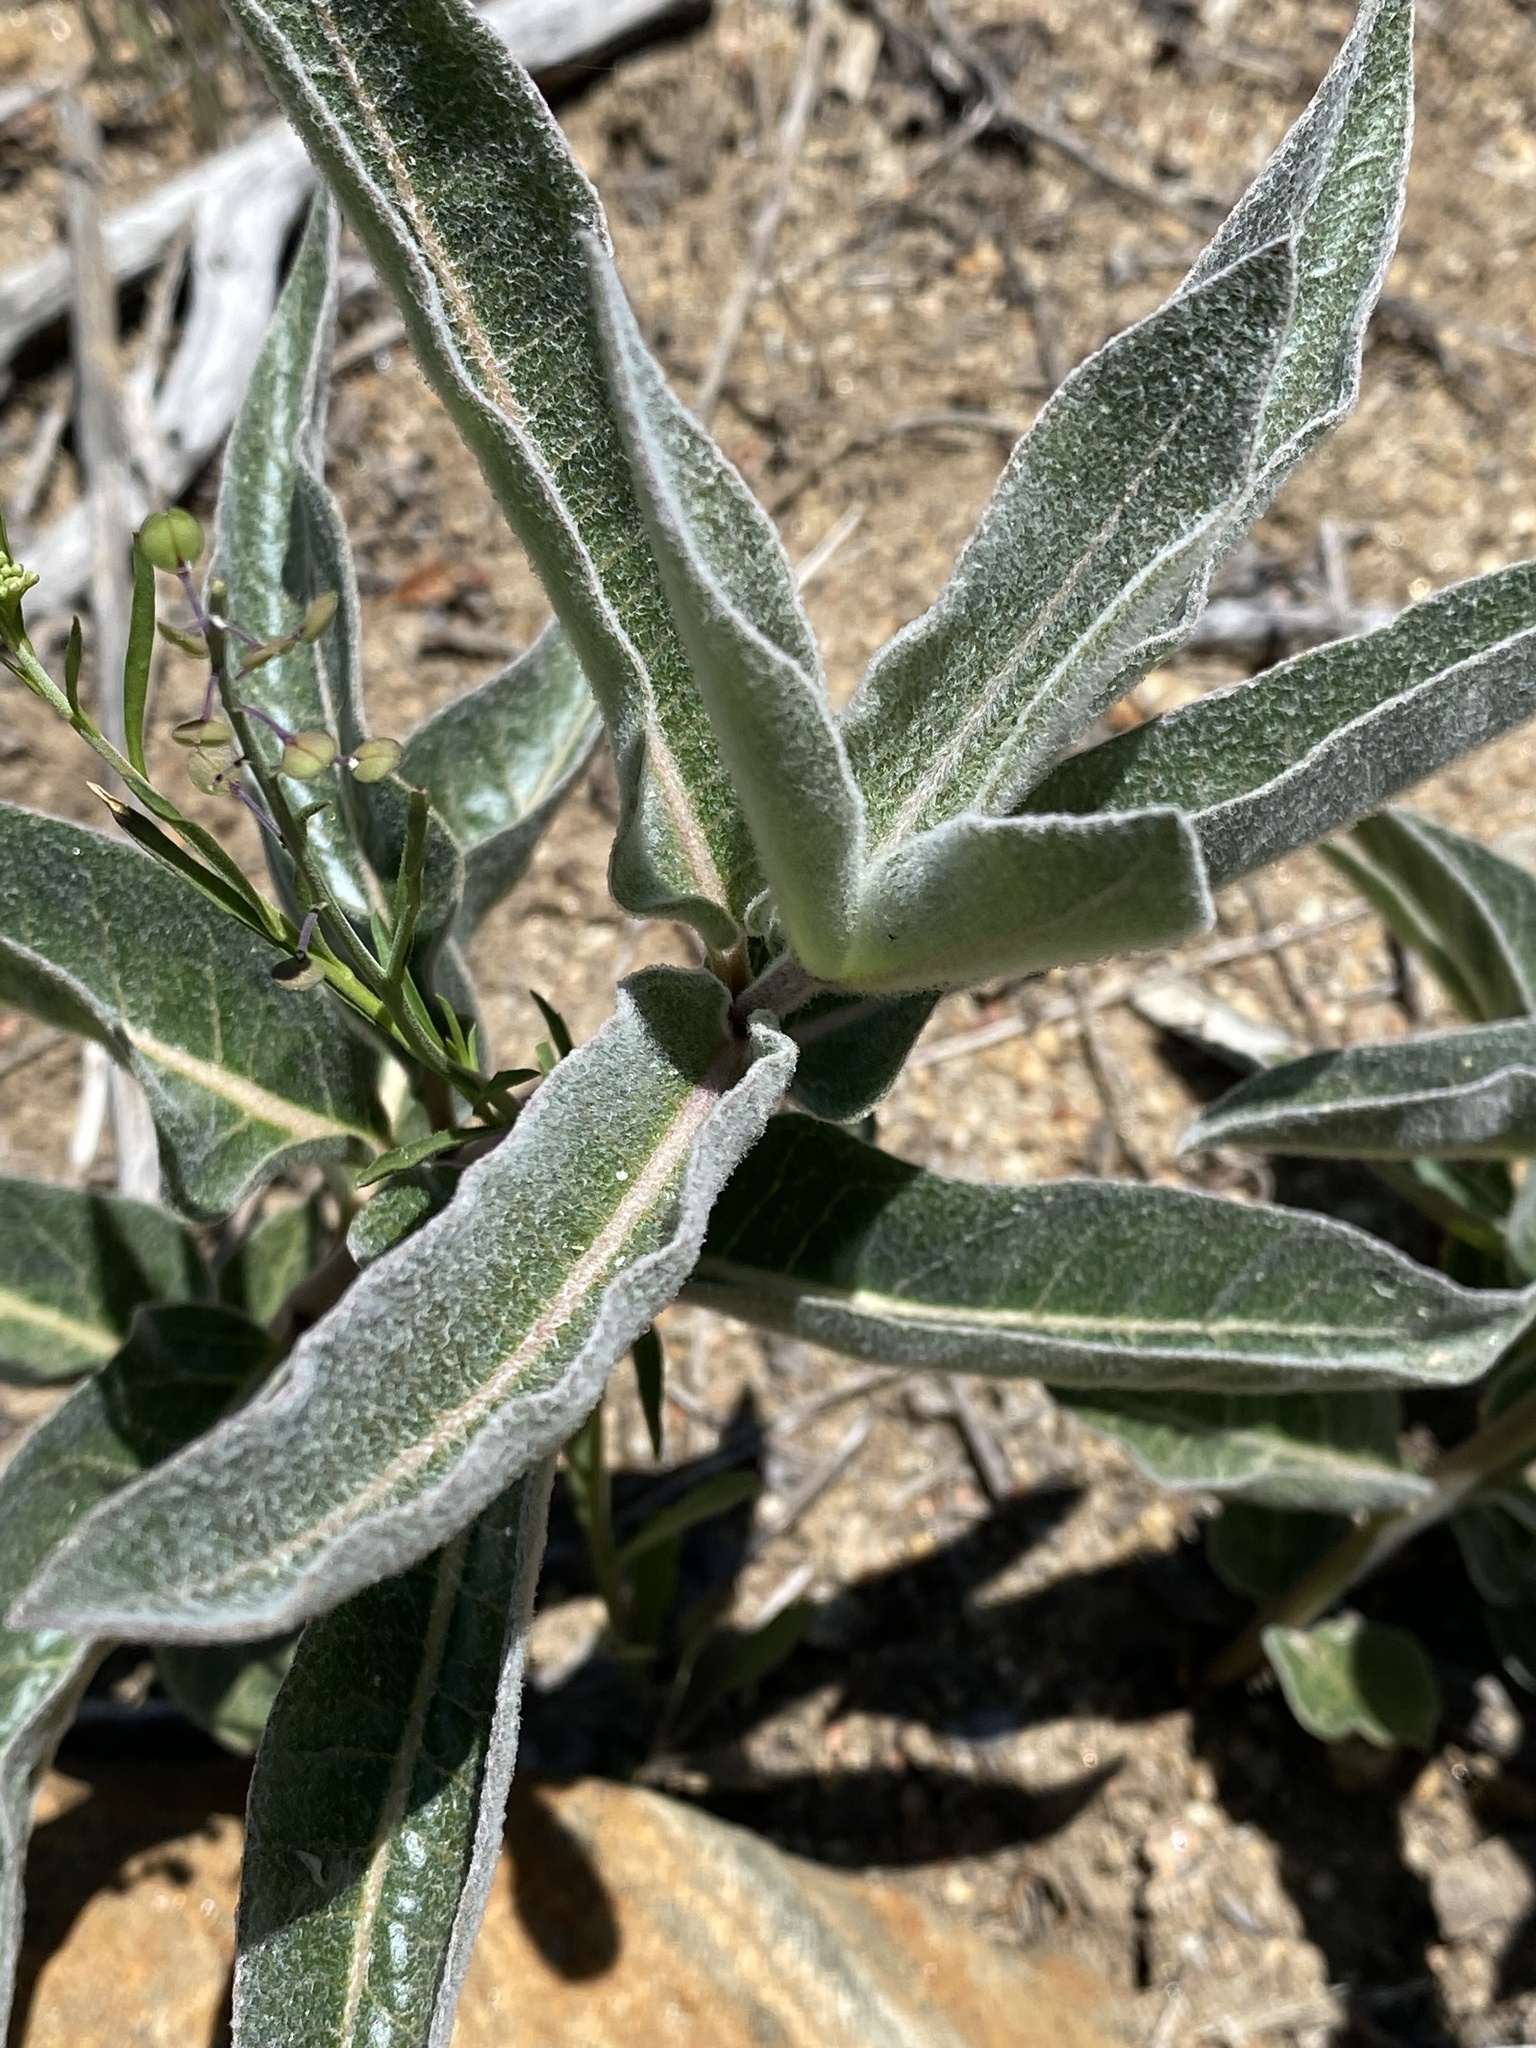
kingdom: Plantae
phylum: Tracheophyta
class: Magnoliopsida
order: Gentianales
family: Apocynaceae
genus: Asclepias
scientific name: Asclepias eriocarpa
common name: Indian milkweed
